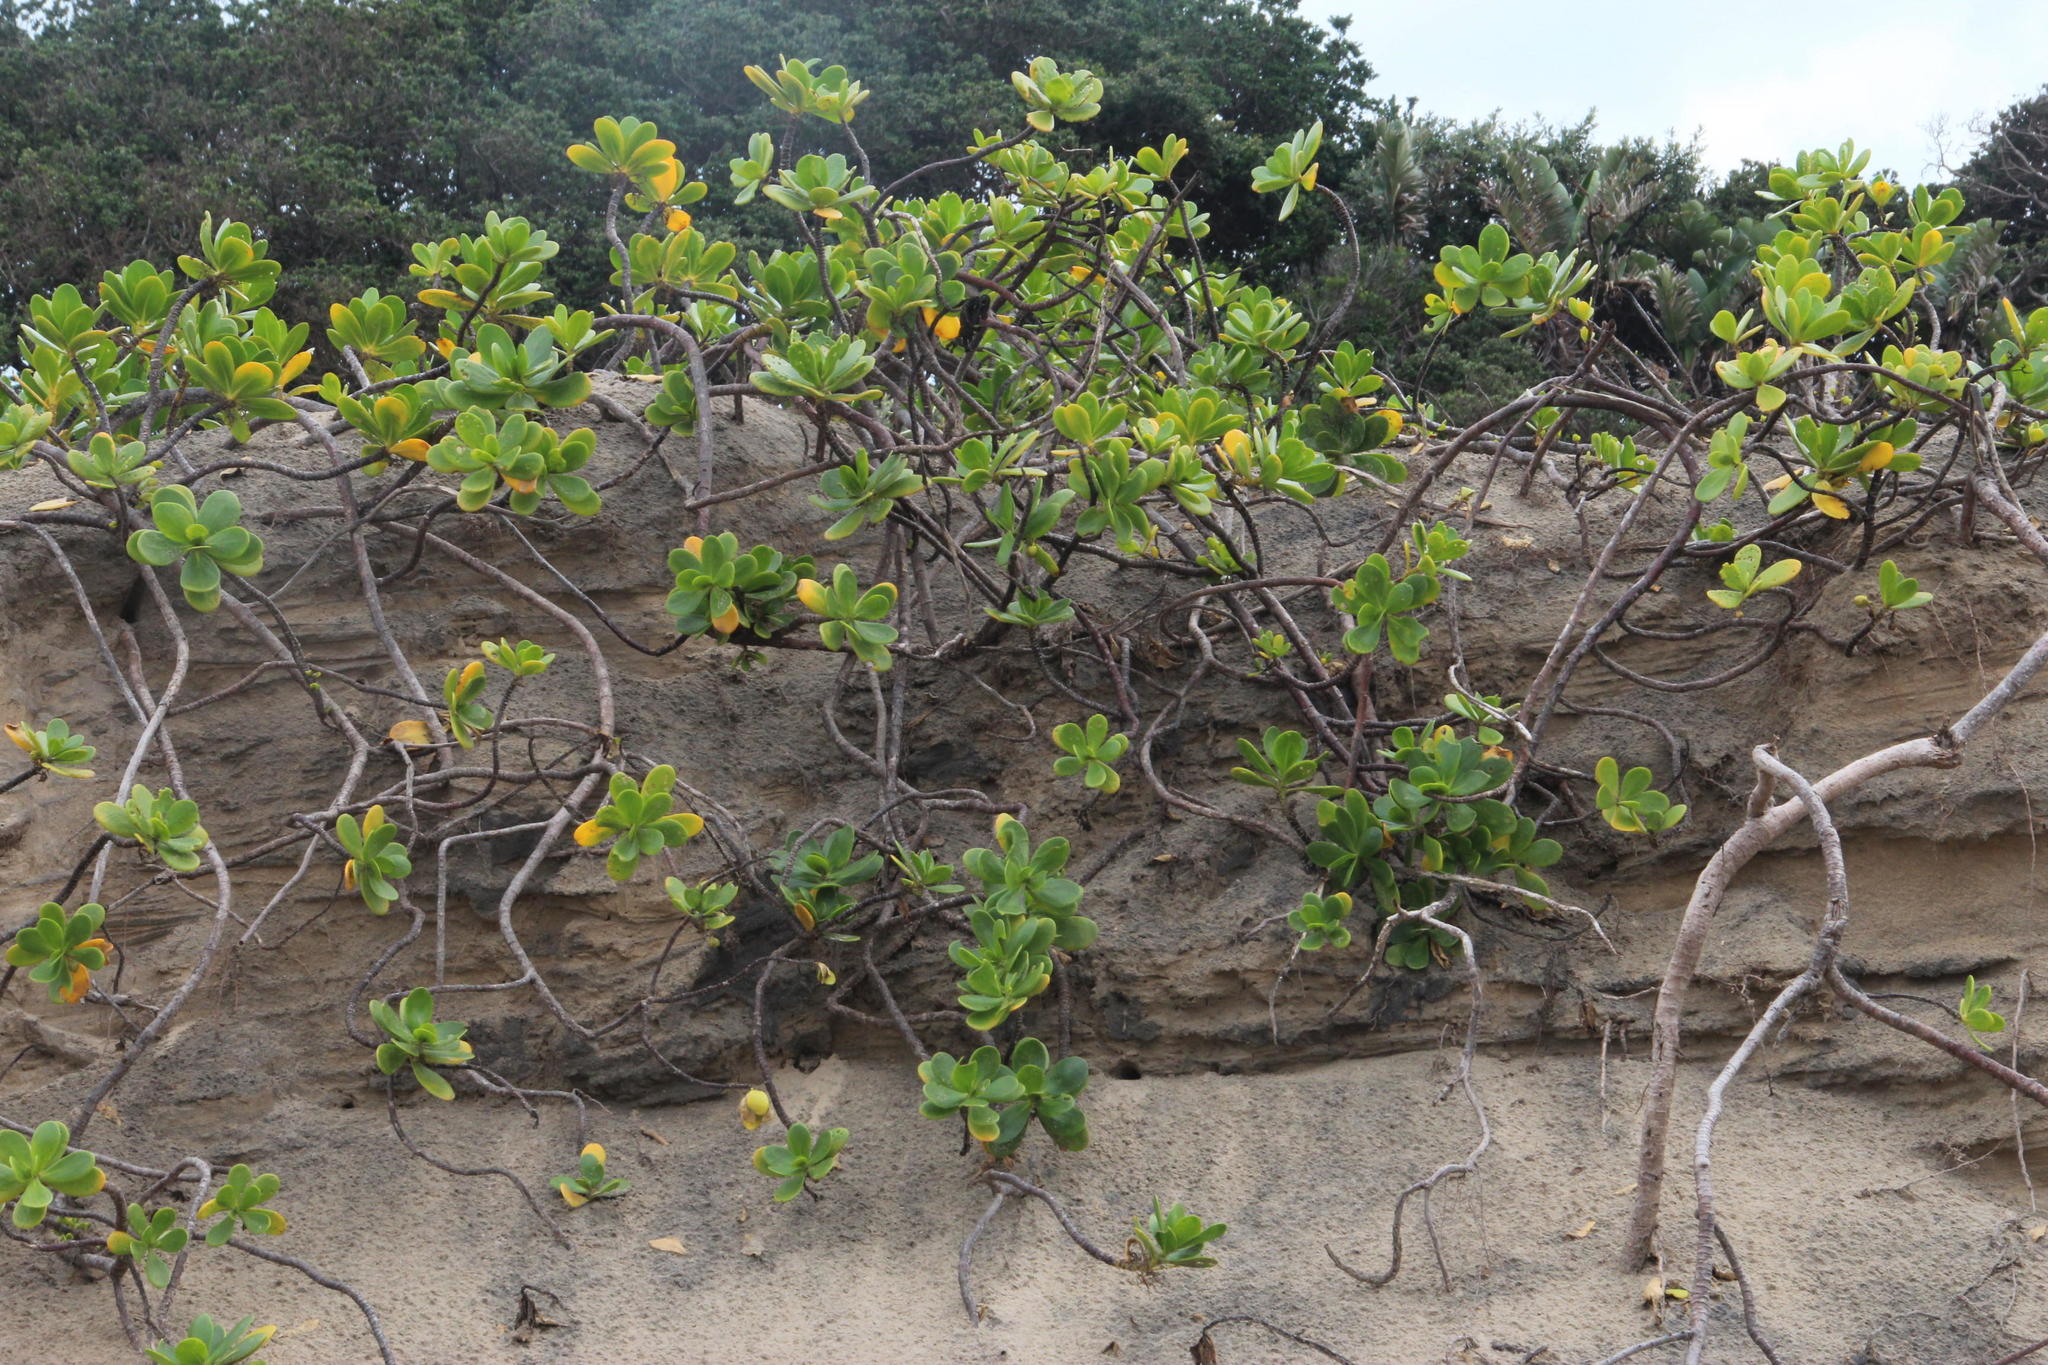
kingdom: Plantae
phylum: Tracheophyta
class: Magnoliopsida
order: Asterales
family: Goodeniaceae
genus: Scaevola
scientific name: Scaevola plumieri
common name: Gull feed
